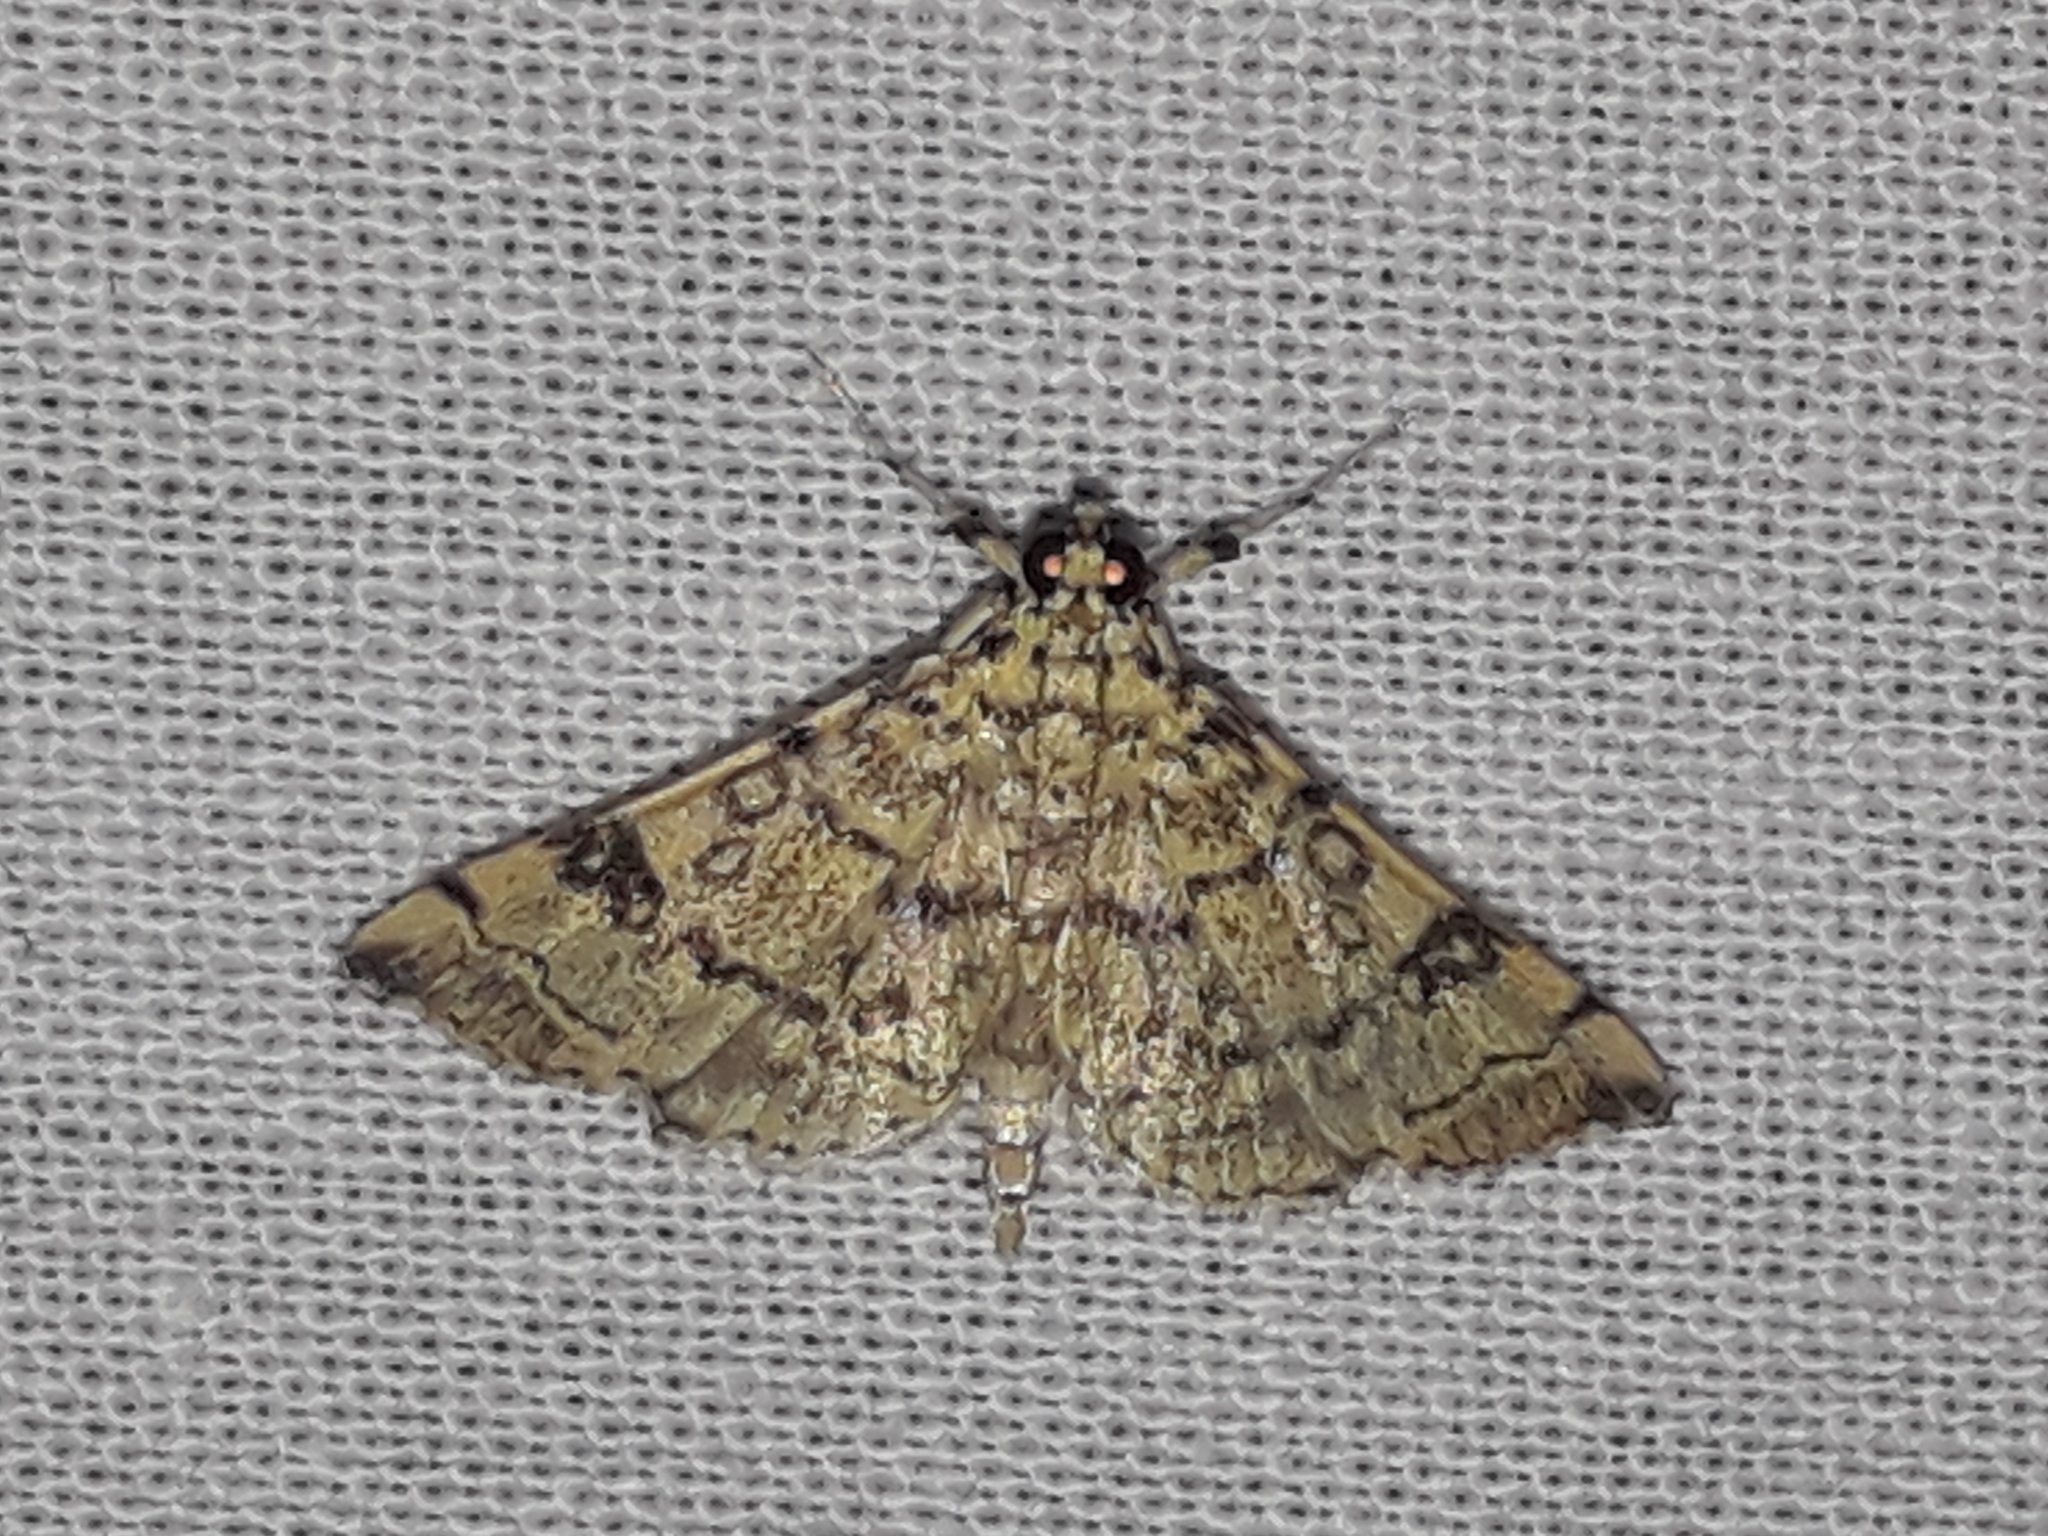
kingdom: Animalia
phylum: Arthropoda
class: Insecta
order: Lepidoptera
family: Crambidae
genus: Apogeshna
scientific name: Apogeshna stenialis
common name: Checkered apogeshna moth
